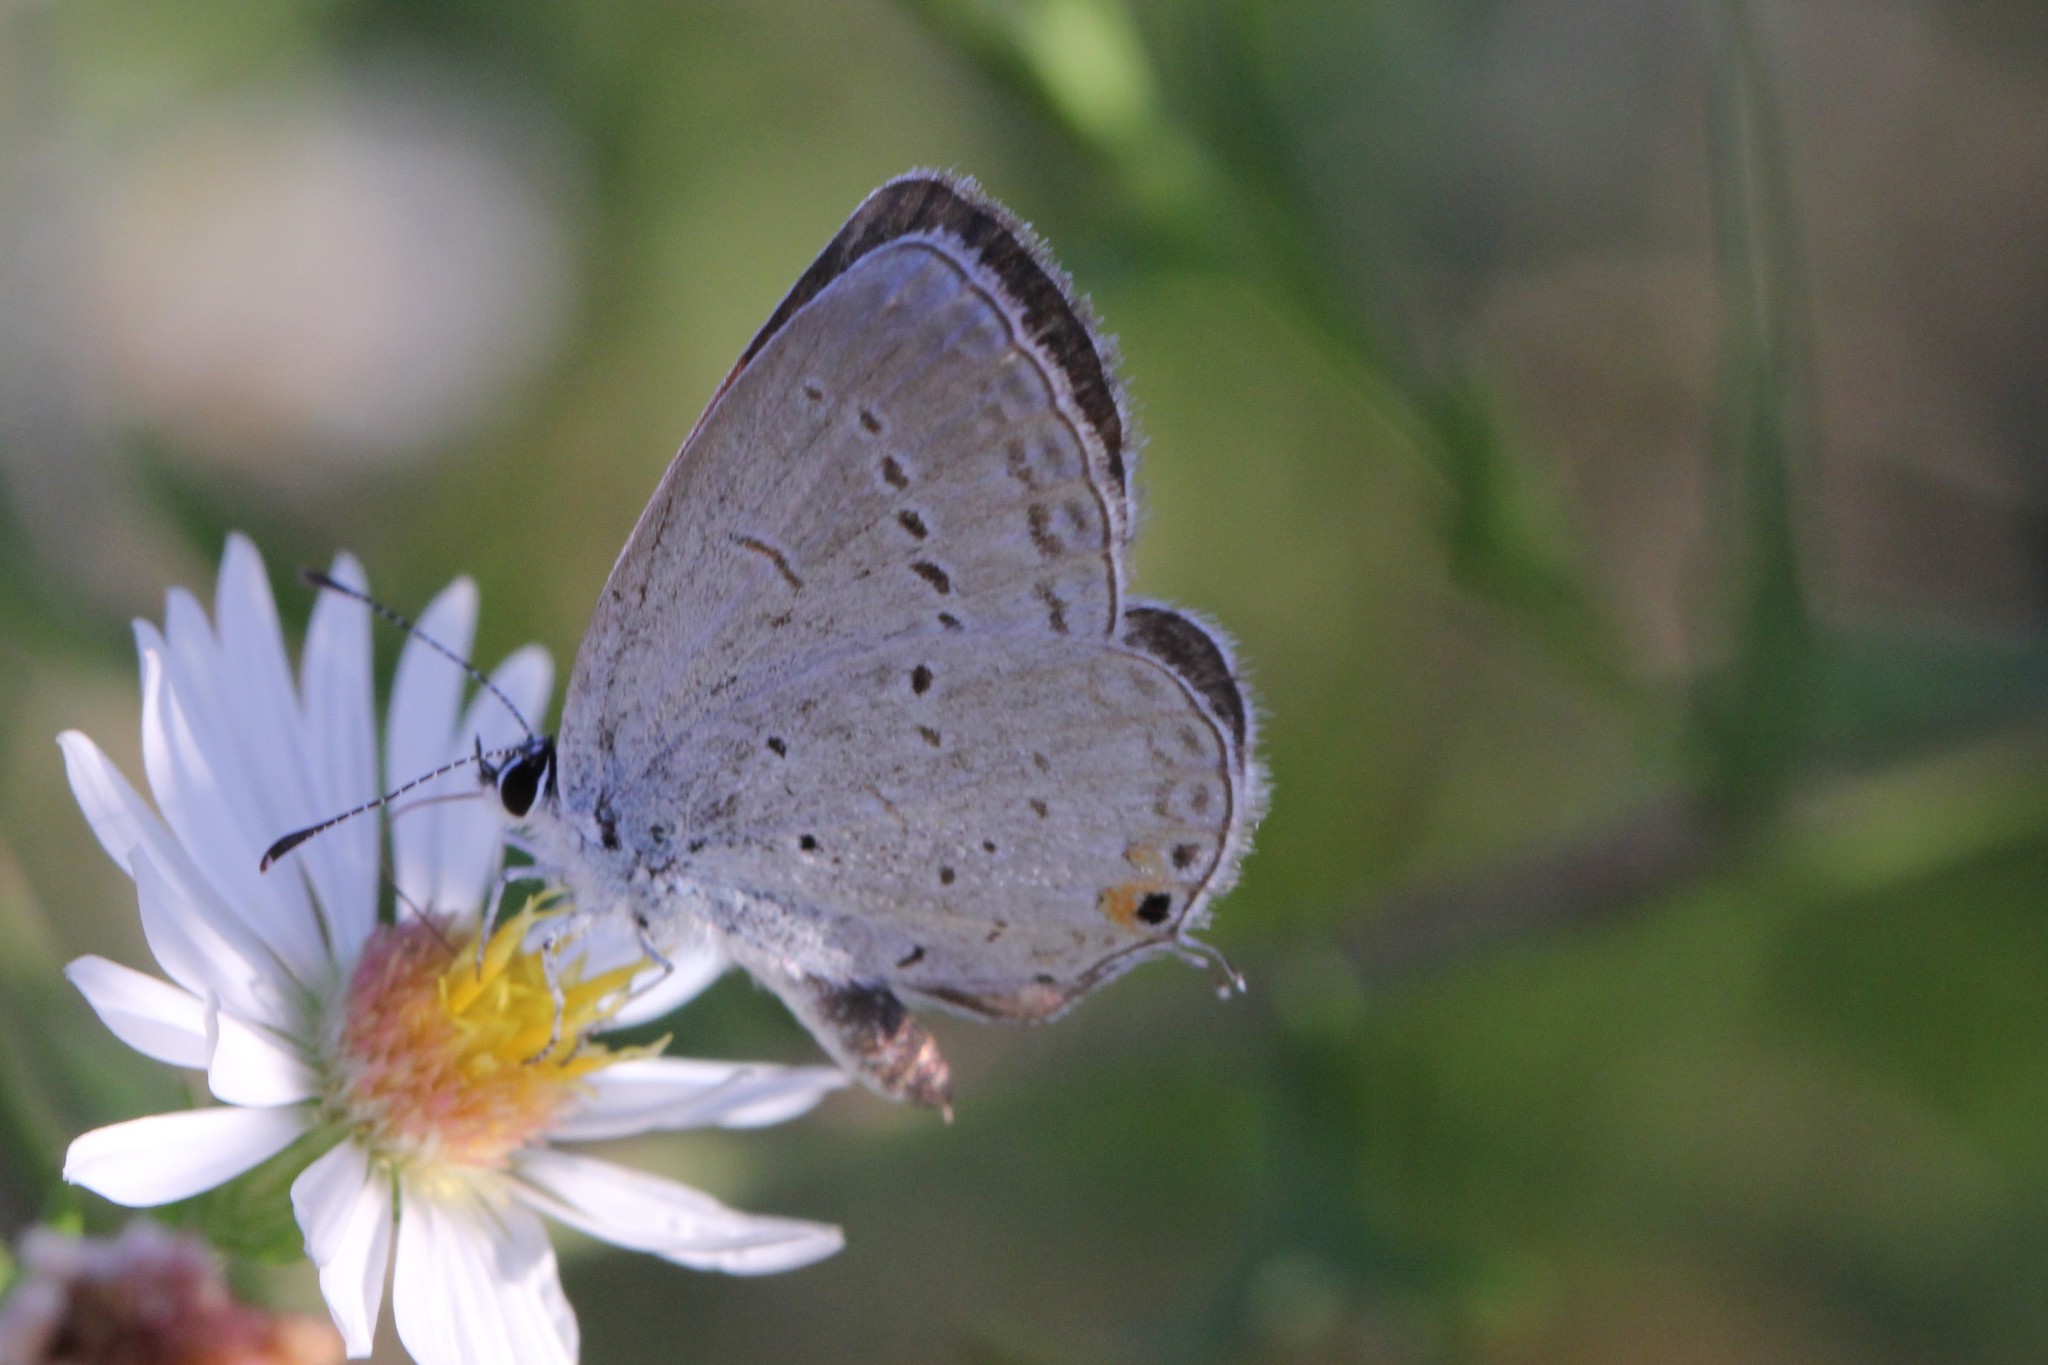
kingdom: Animalia
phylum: Arthropoda
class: Insecta
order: Lepidoptera
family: Lycaenidae
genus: Elkalyce
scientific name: Elkalyce comyntas
